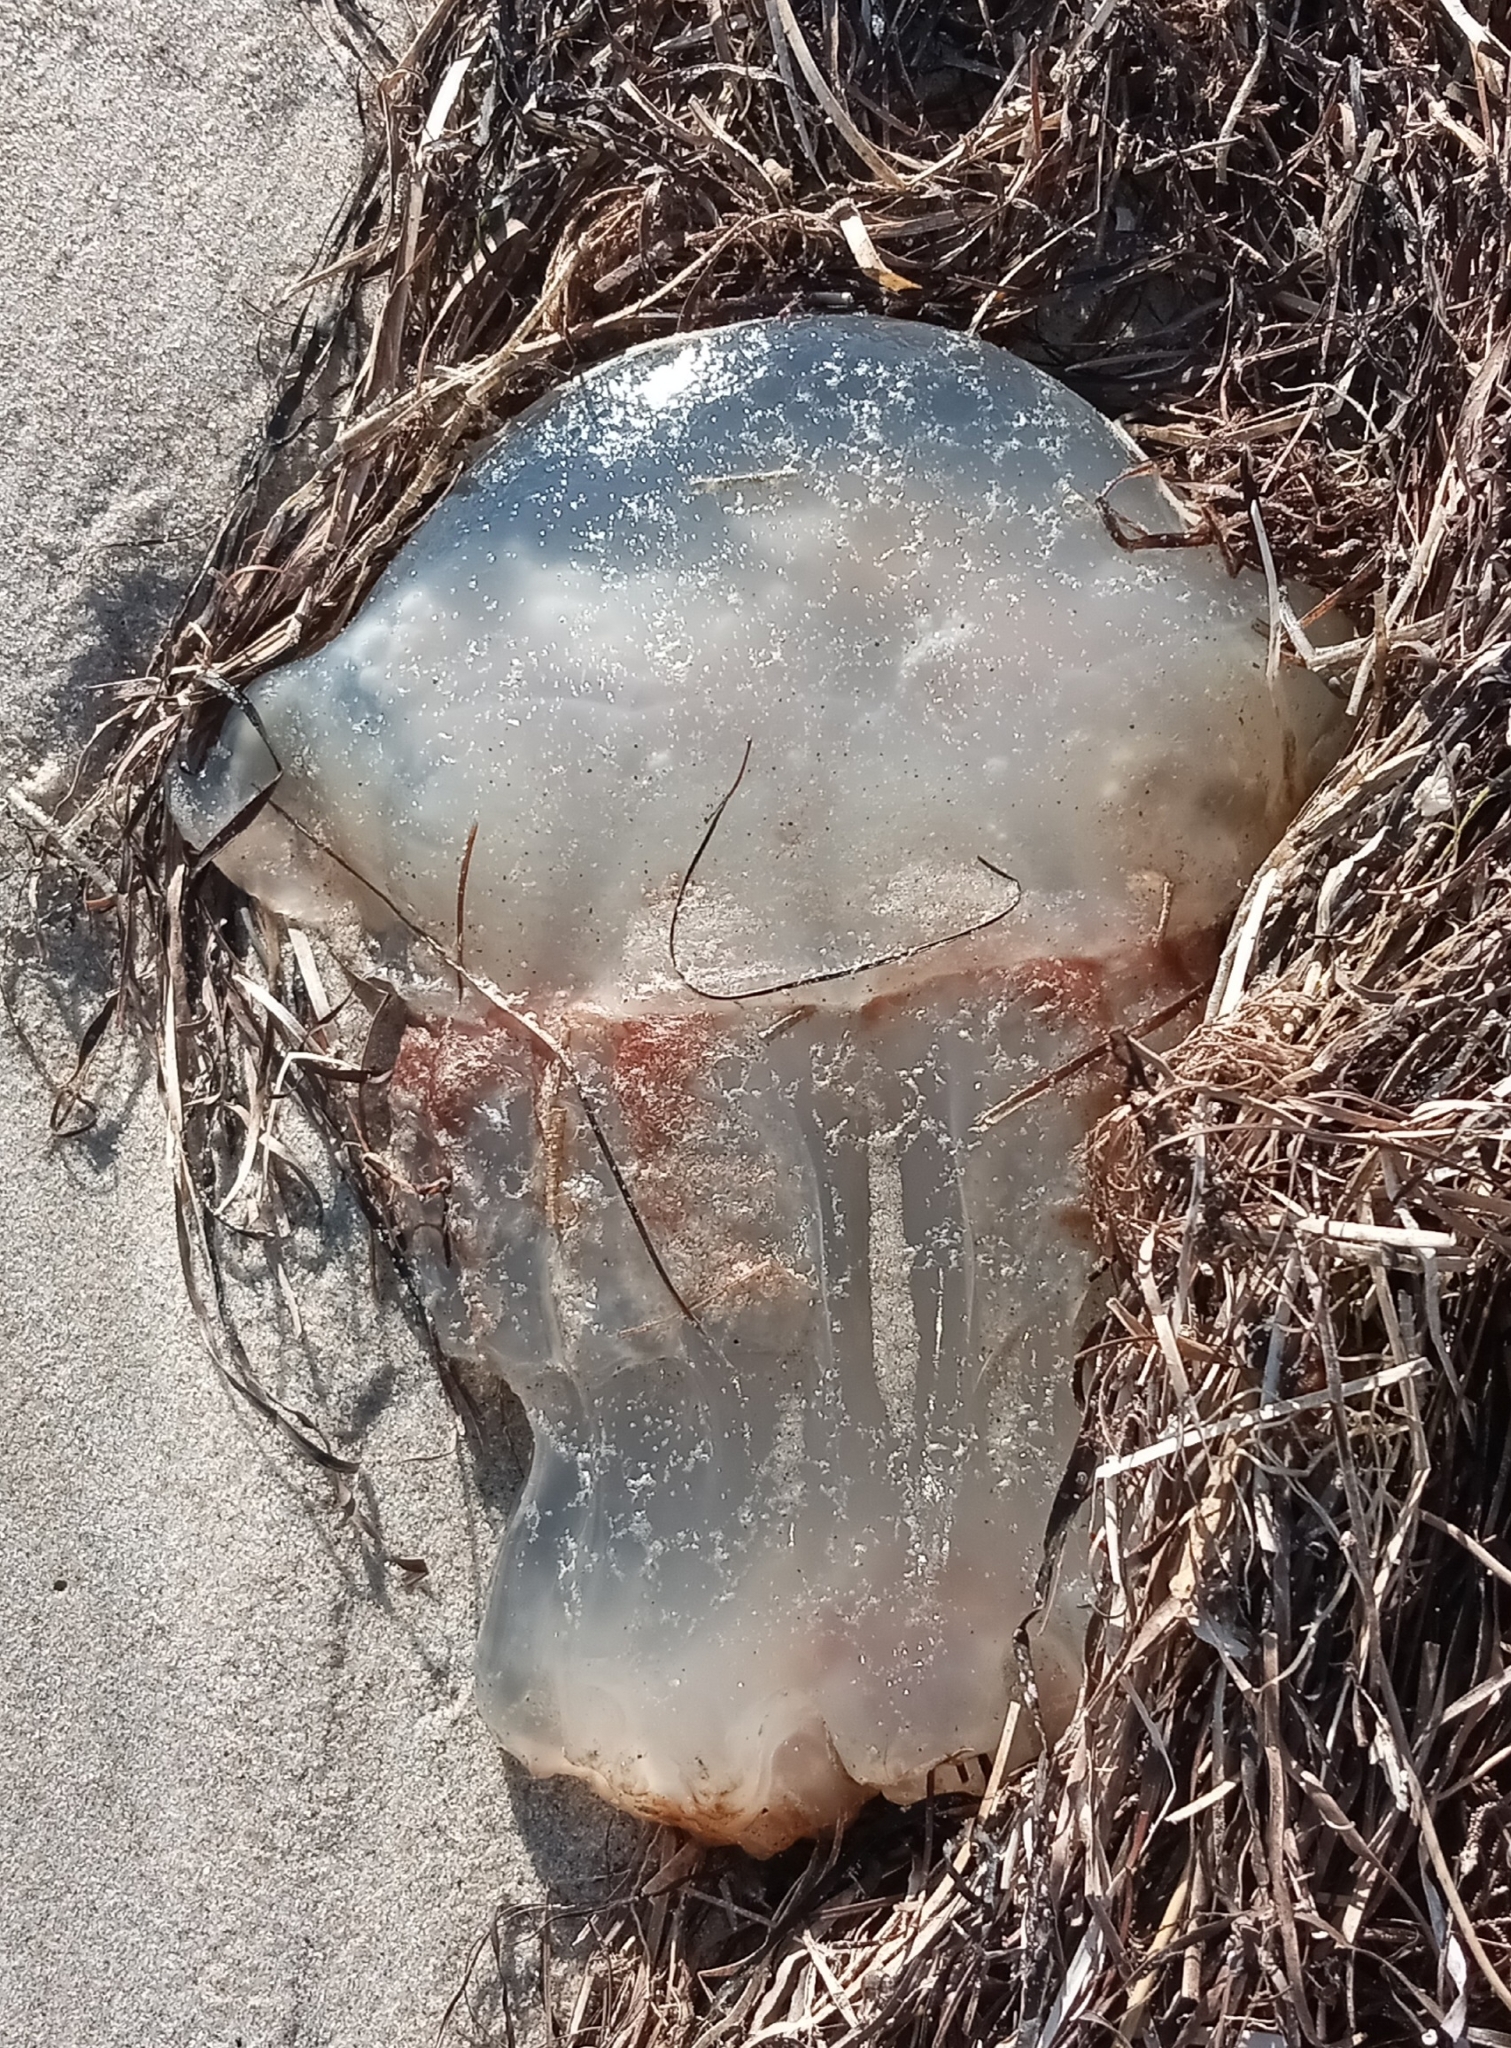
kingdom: Animalia
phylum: Cnidaria
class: Scyphozoa
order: Rhizostomeae
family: Stomolophidae
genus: Stomolophus
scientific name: Stomolophus meleagris
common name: Cabbagehead
